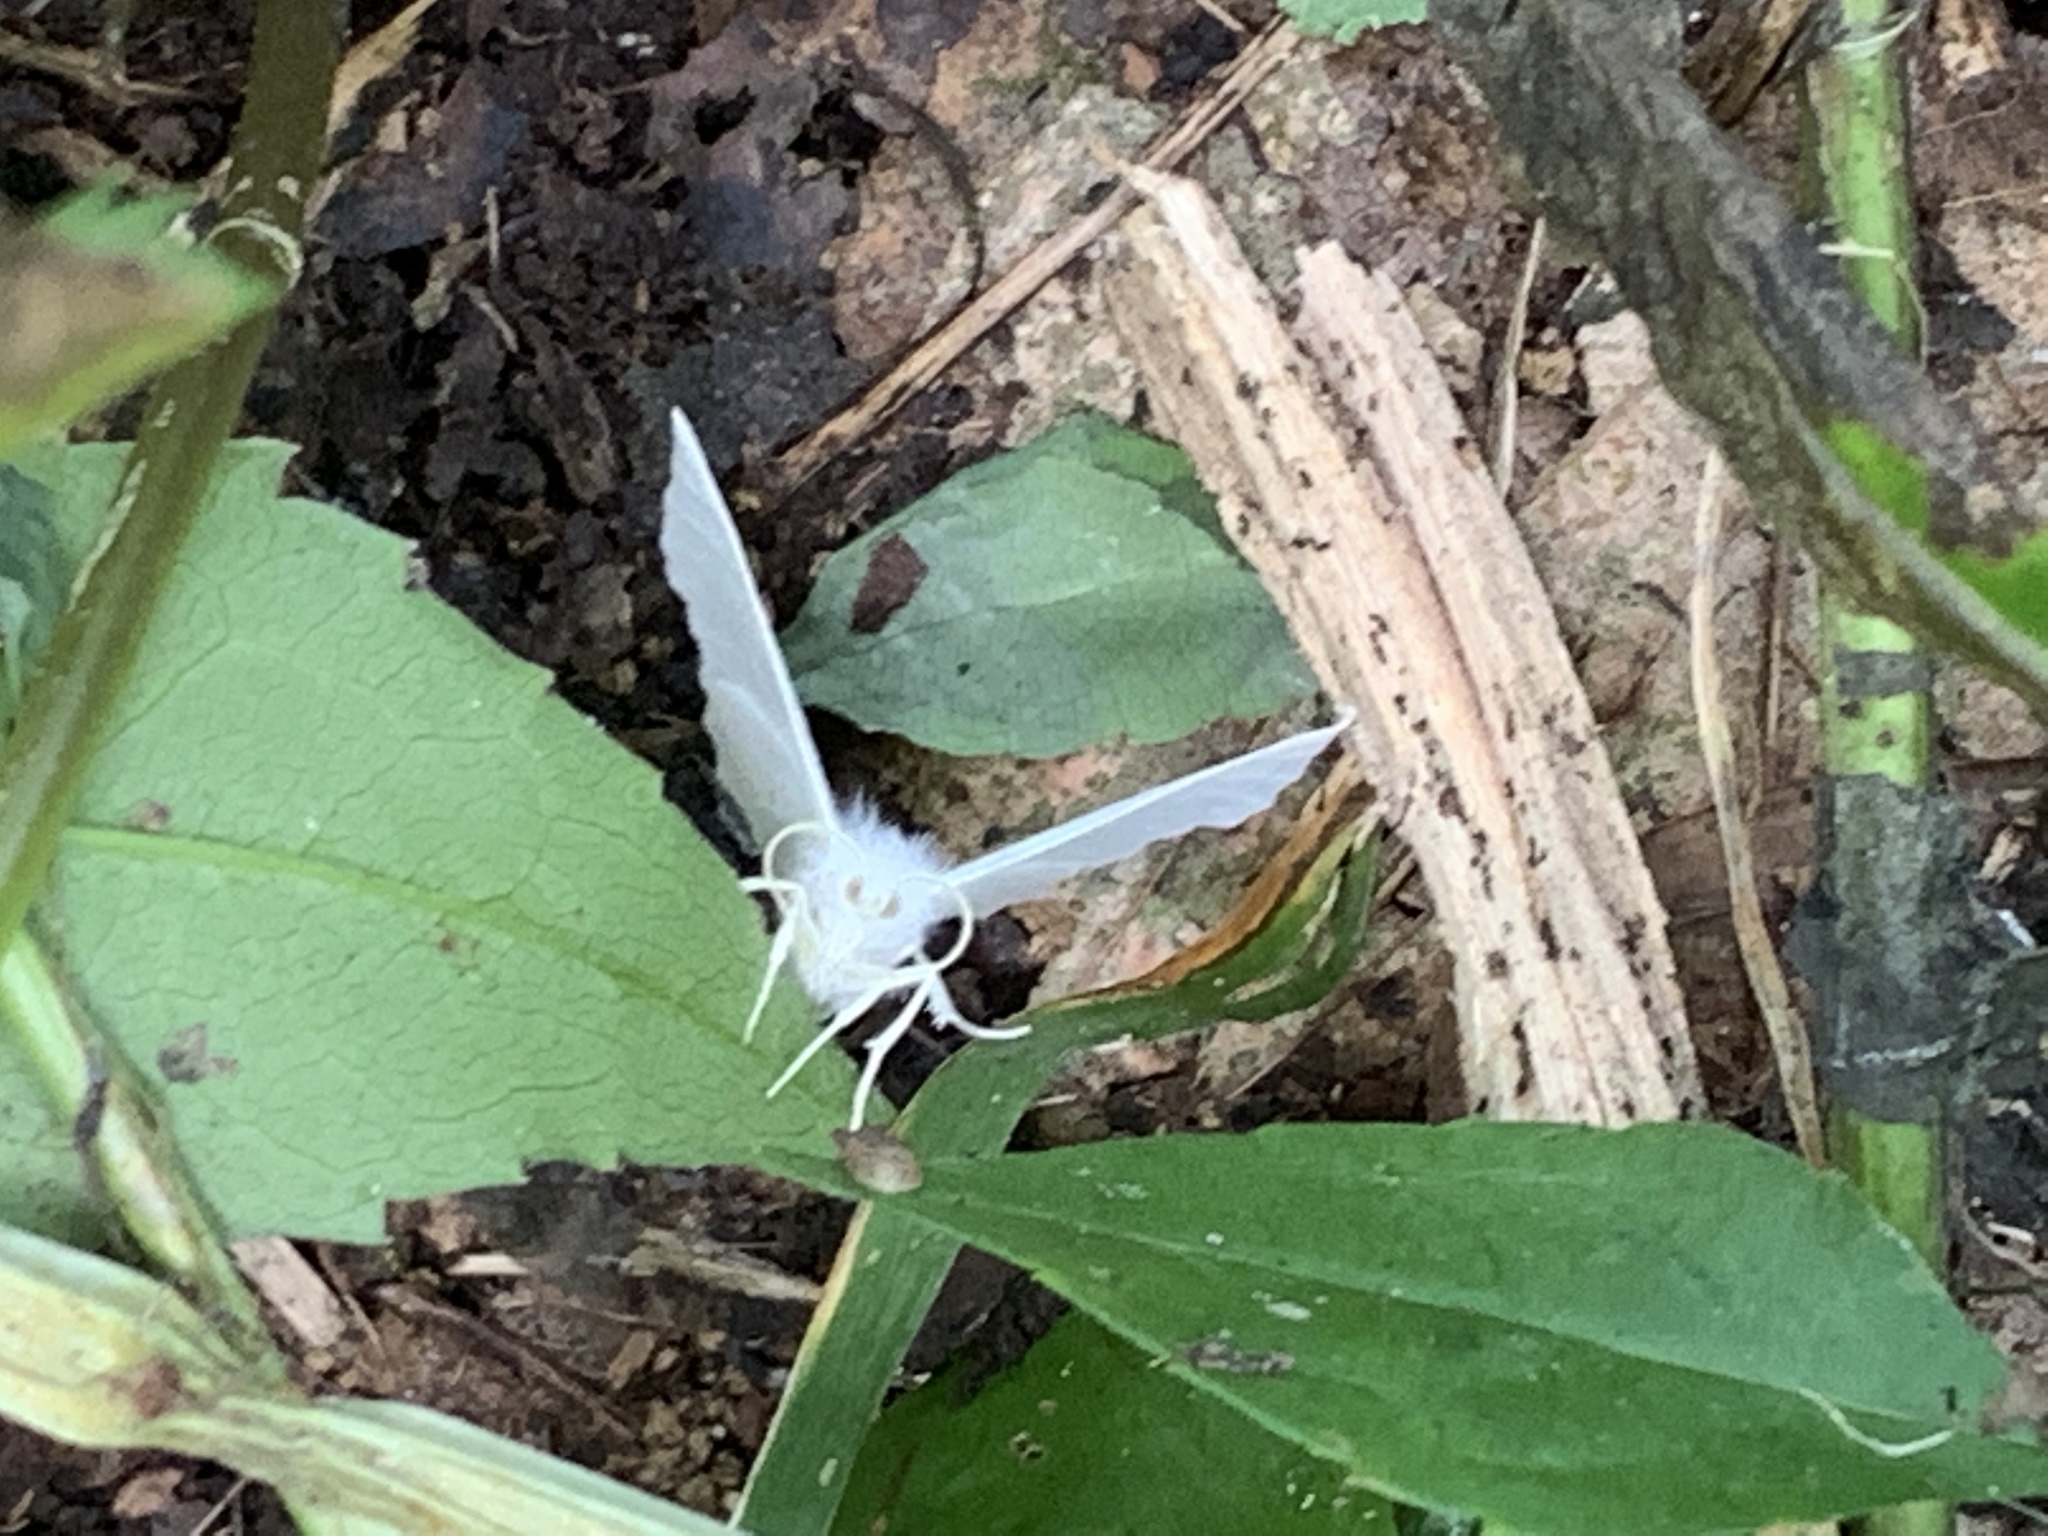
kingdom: Animalia
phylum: Arthropoda
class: Insecta
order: Lepidoptera
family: Geometridae
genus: Ennomos
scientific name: Ennomos subsignaria
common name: Elm spanworm
